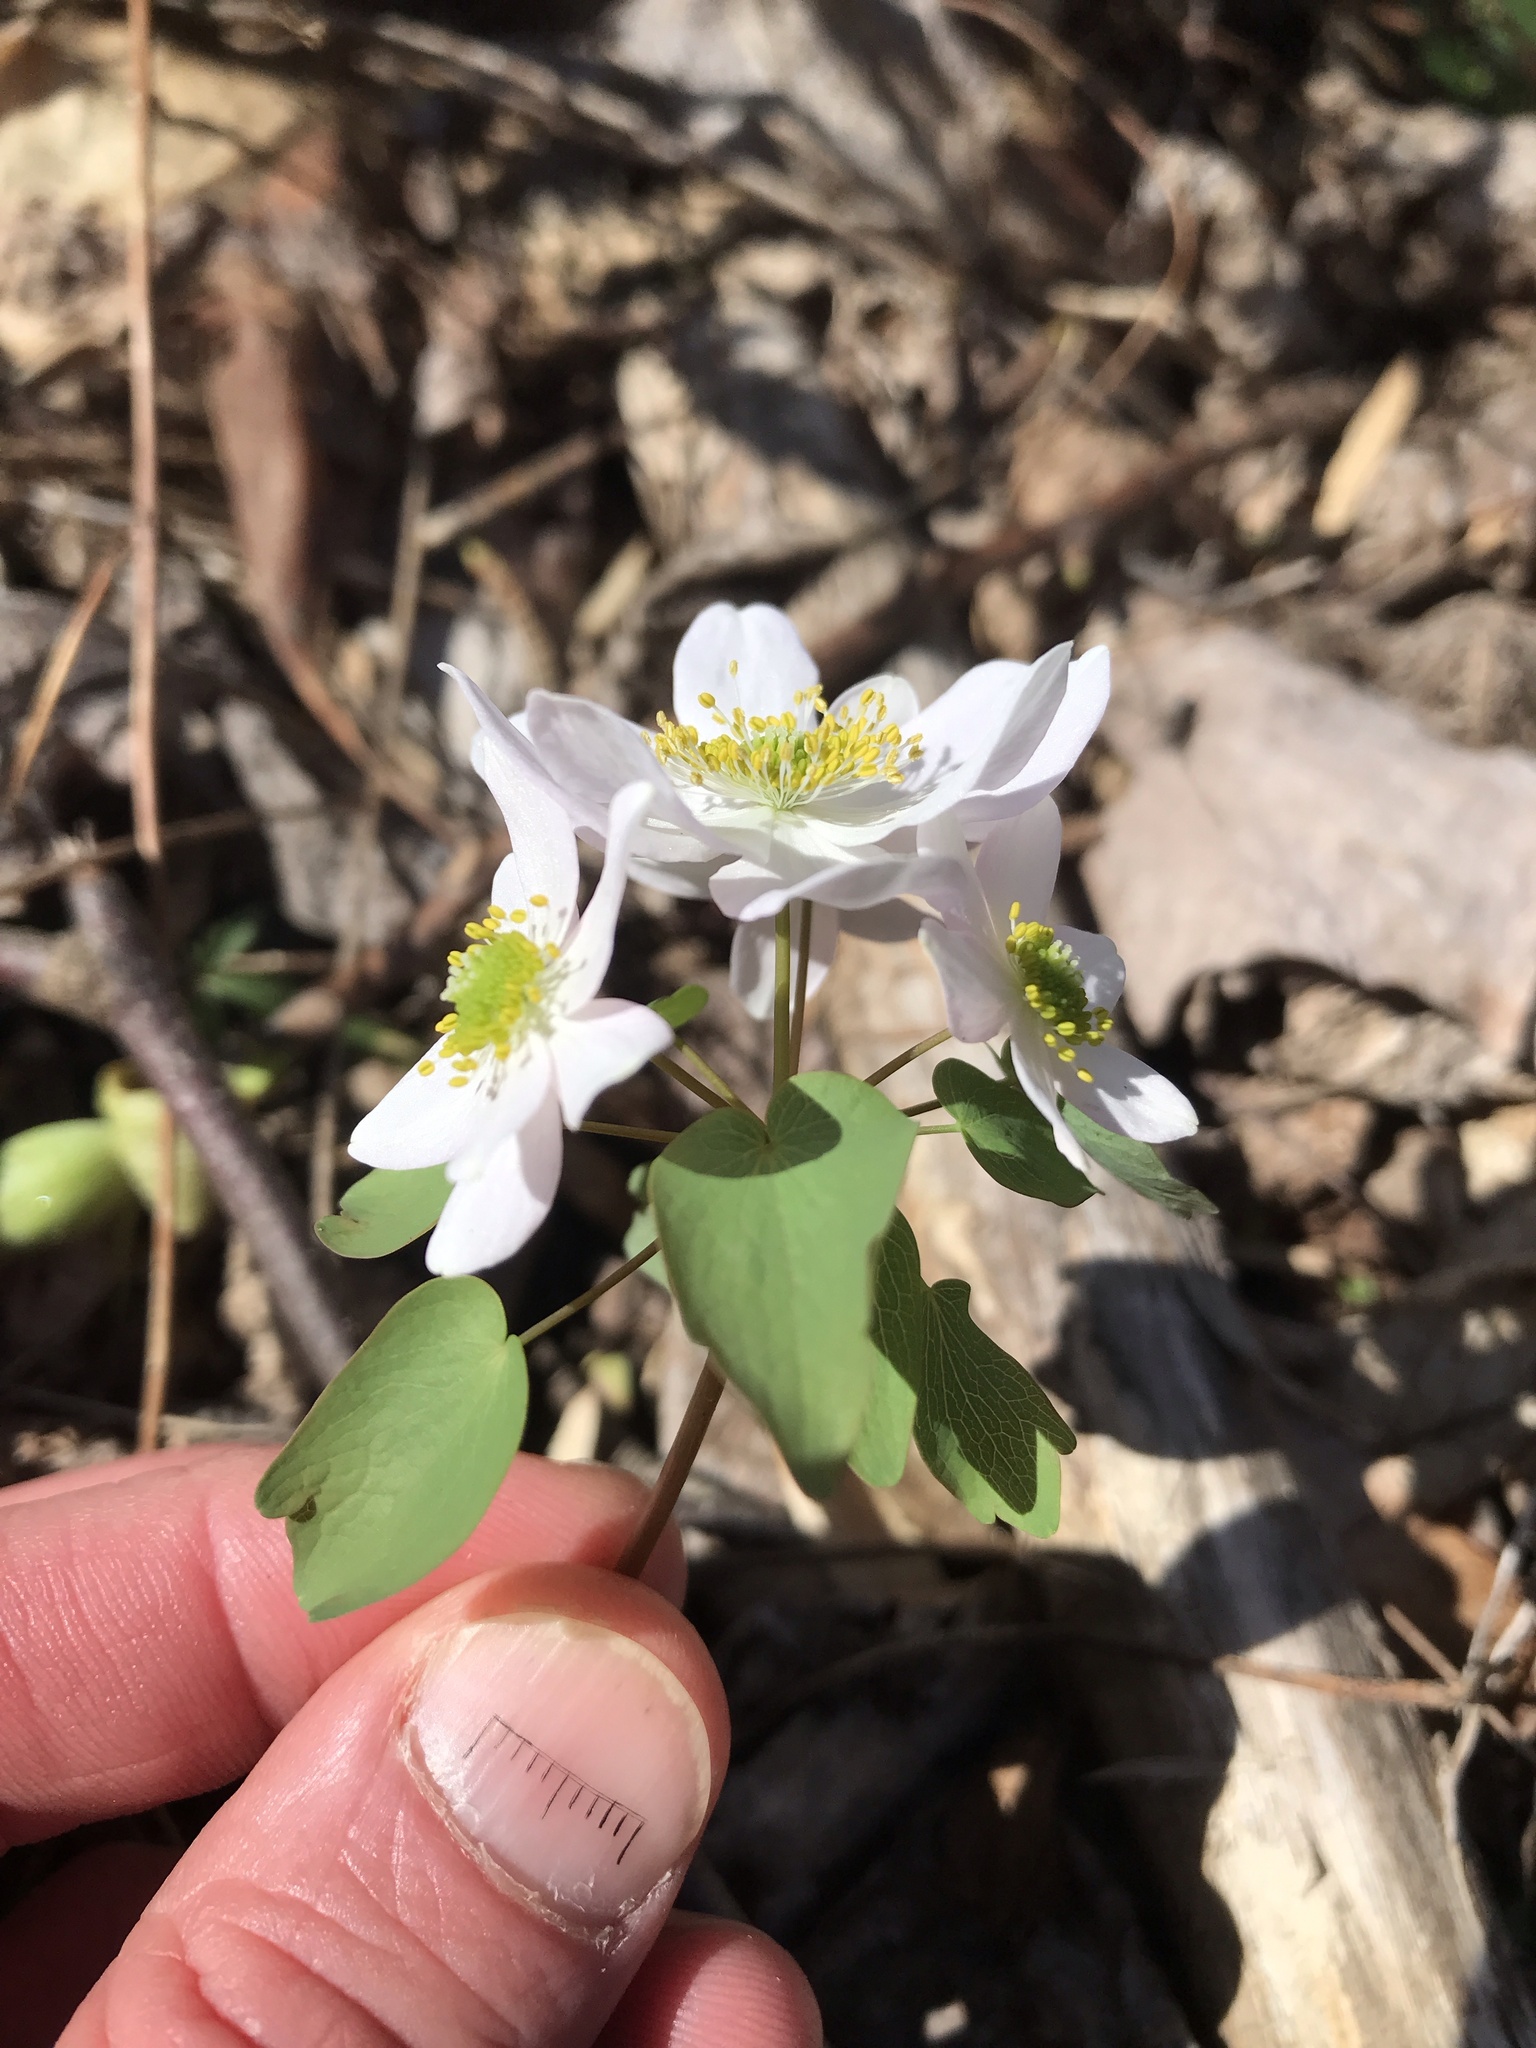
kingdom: Plantae
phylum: Tracheophyta
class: Magnoliopsida
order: Ranunculales
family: Ranunculaceae
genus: Thalictrum
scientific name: Thalictrum thalictroides
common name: Rue-anemone
